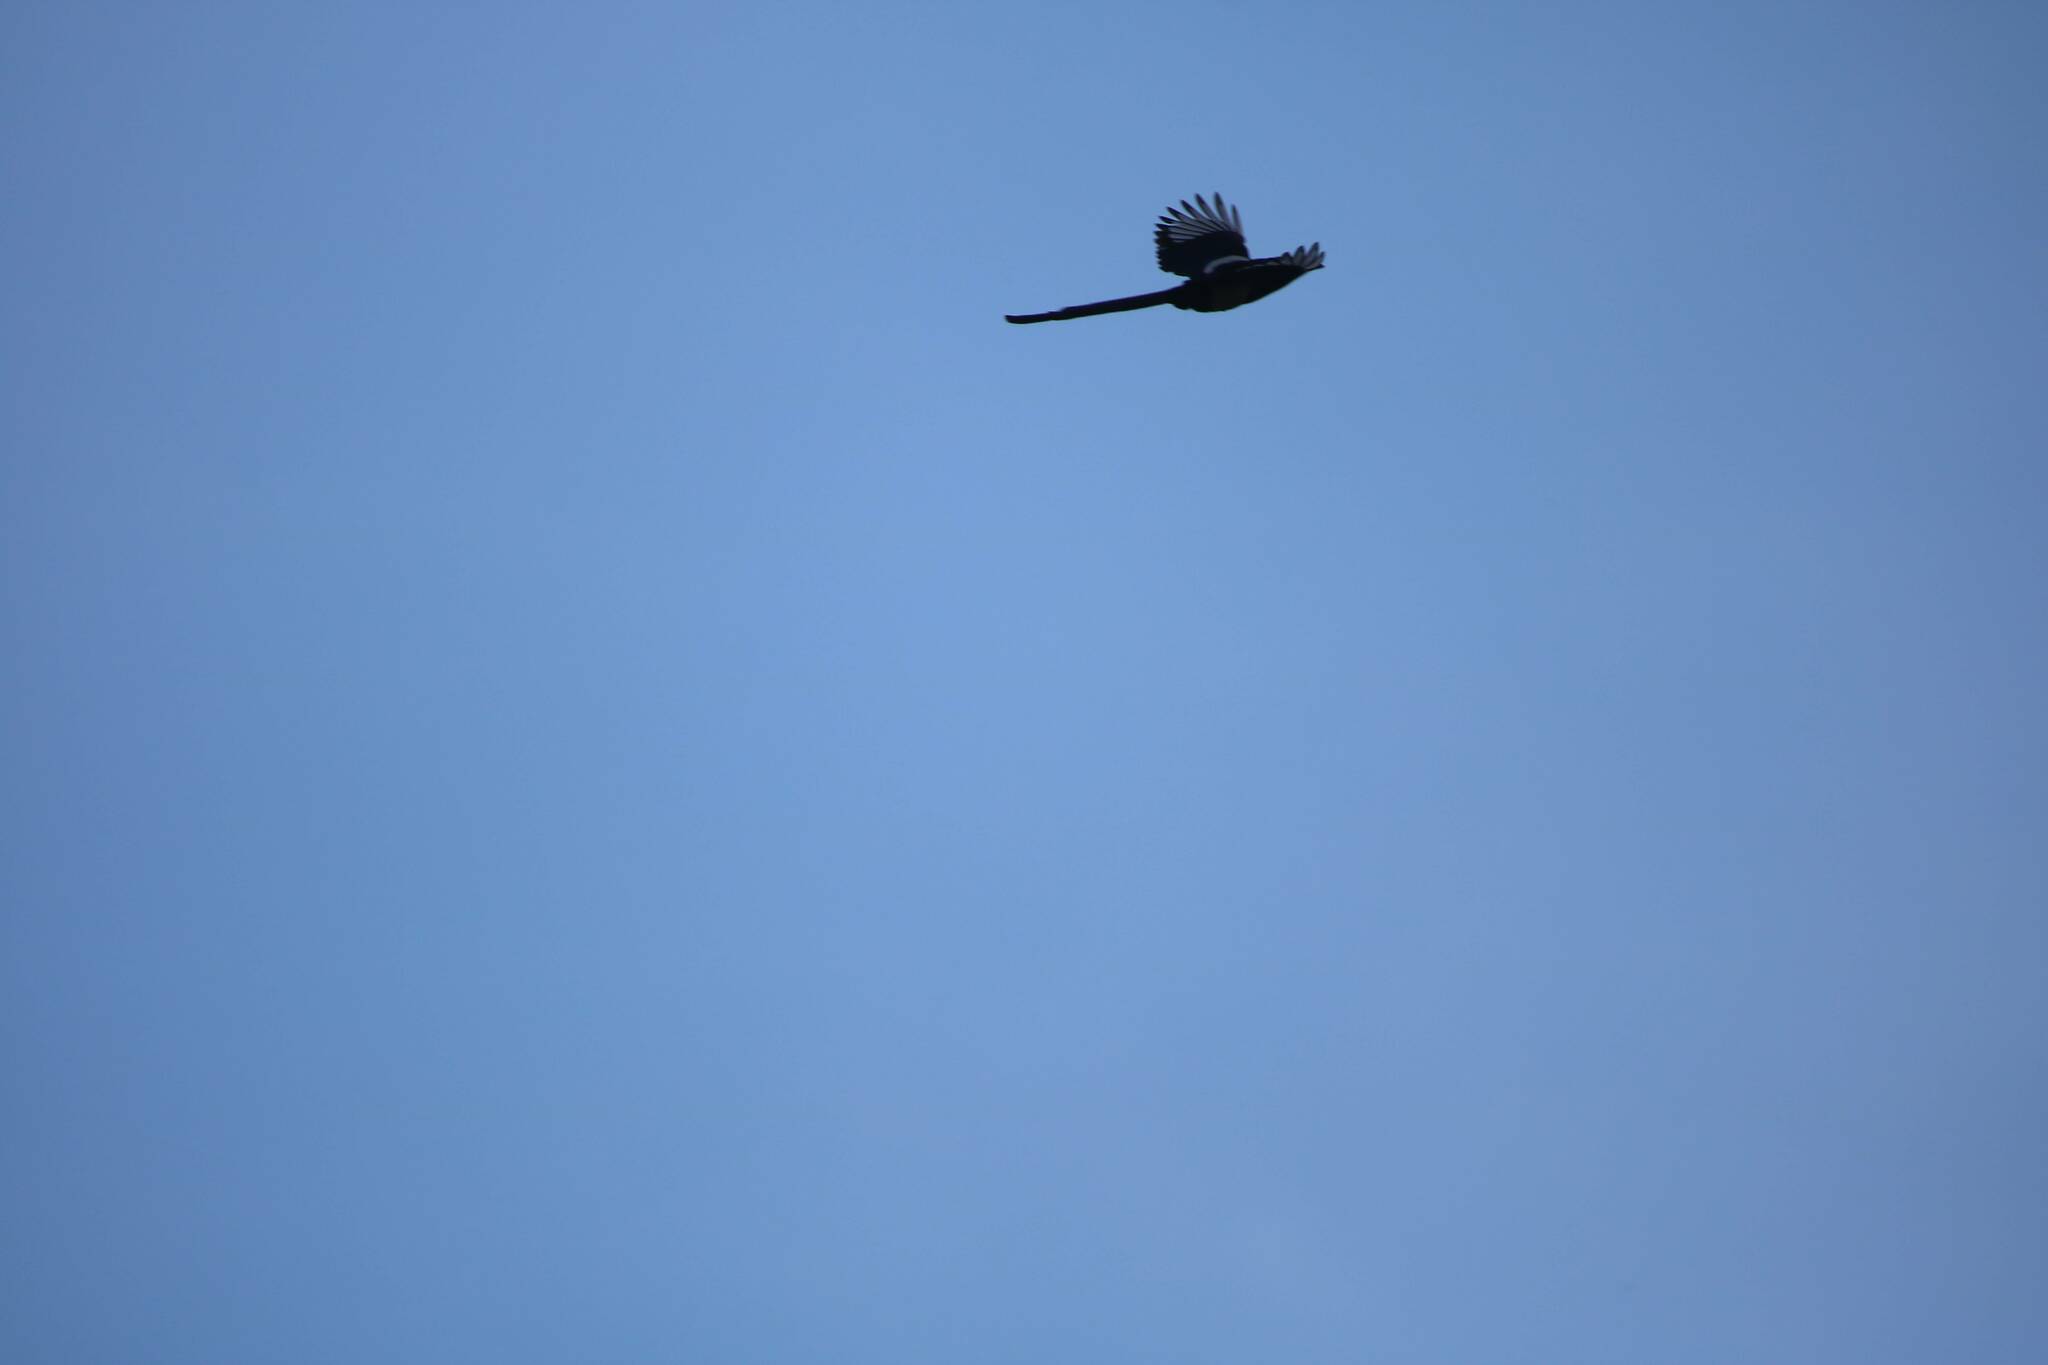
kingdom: Animalia
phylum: Chordata
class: Aves
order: Passeriformes
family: Corvidae
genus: Pica
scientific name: Pica mauritanica
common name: Maghreb magpie
